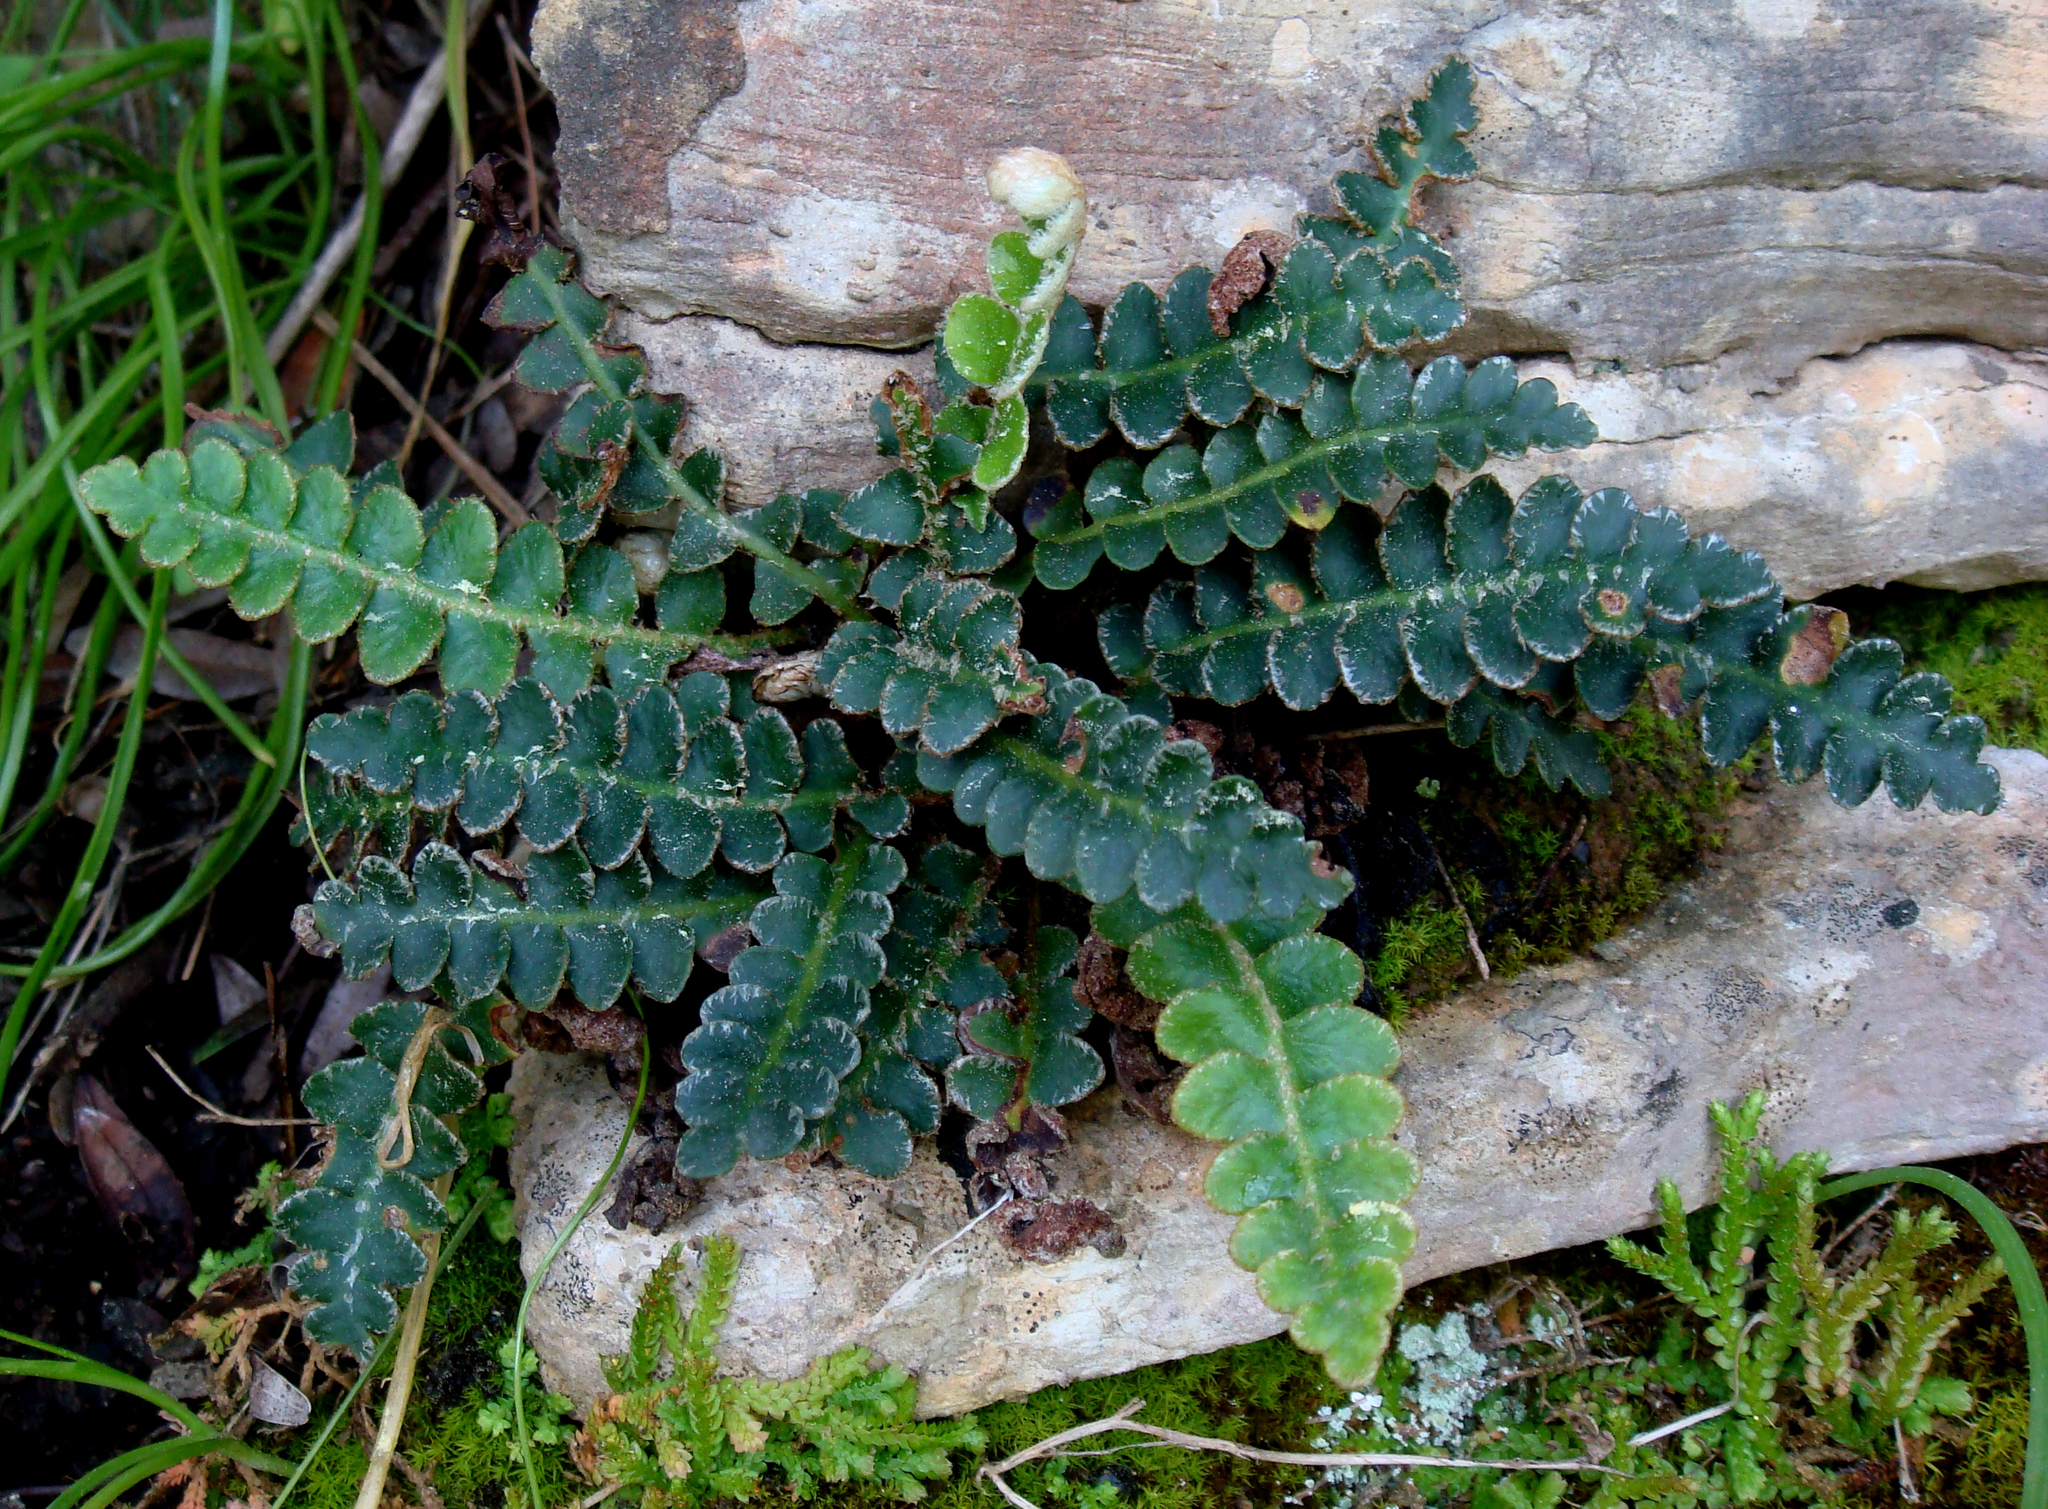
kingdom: Plantae
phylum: Tracheophyta
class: Polypodiopsida
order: Polypodiales
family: Aspleniaceae
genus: Asplenium
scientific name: Asplenium ceterach
